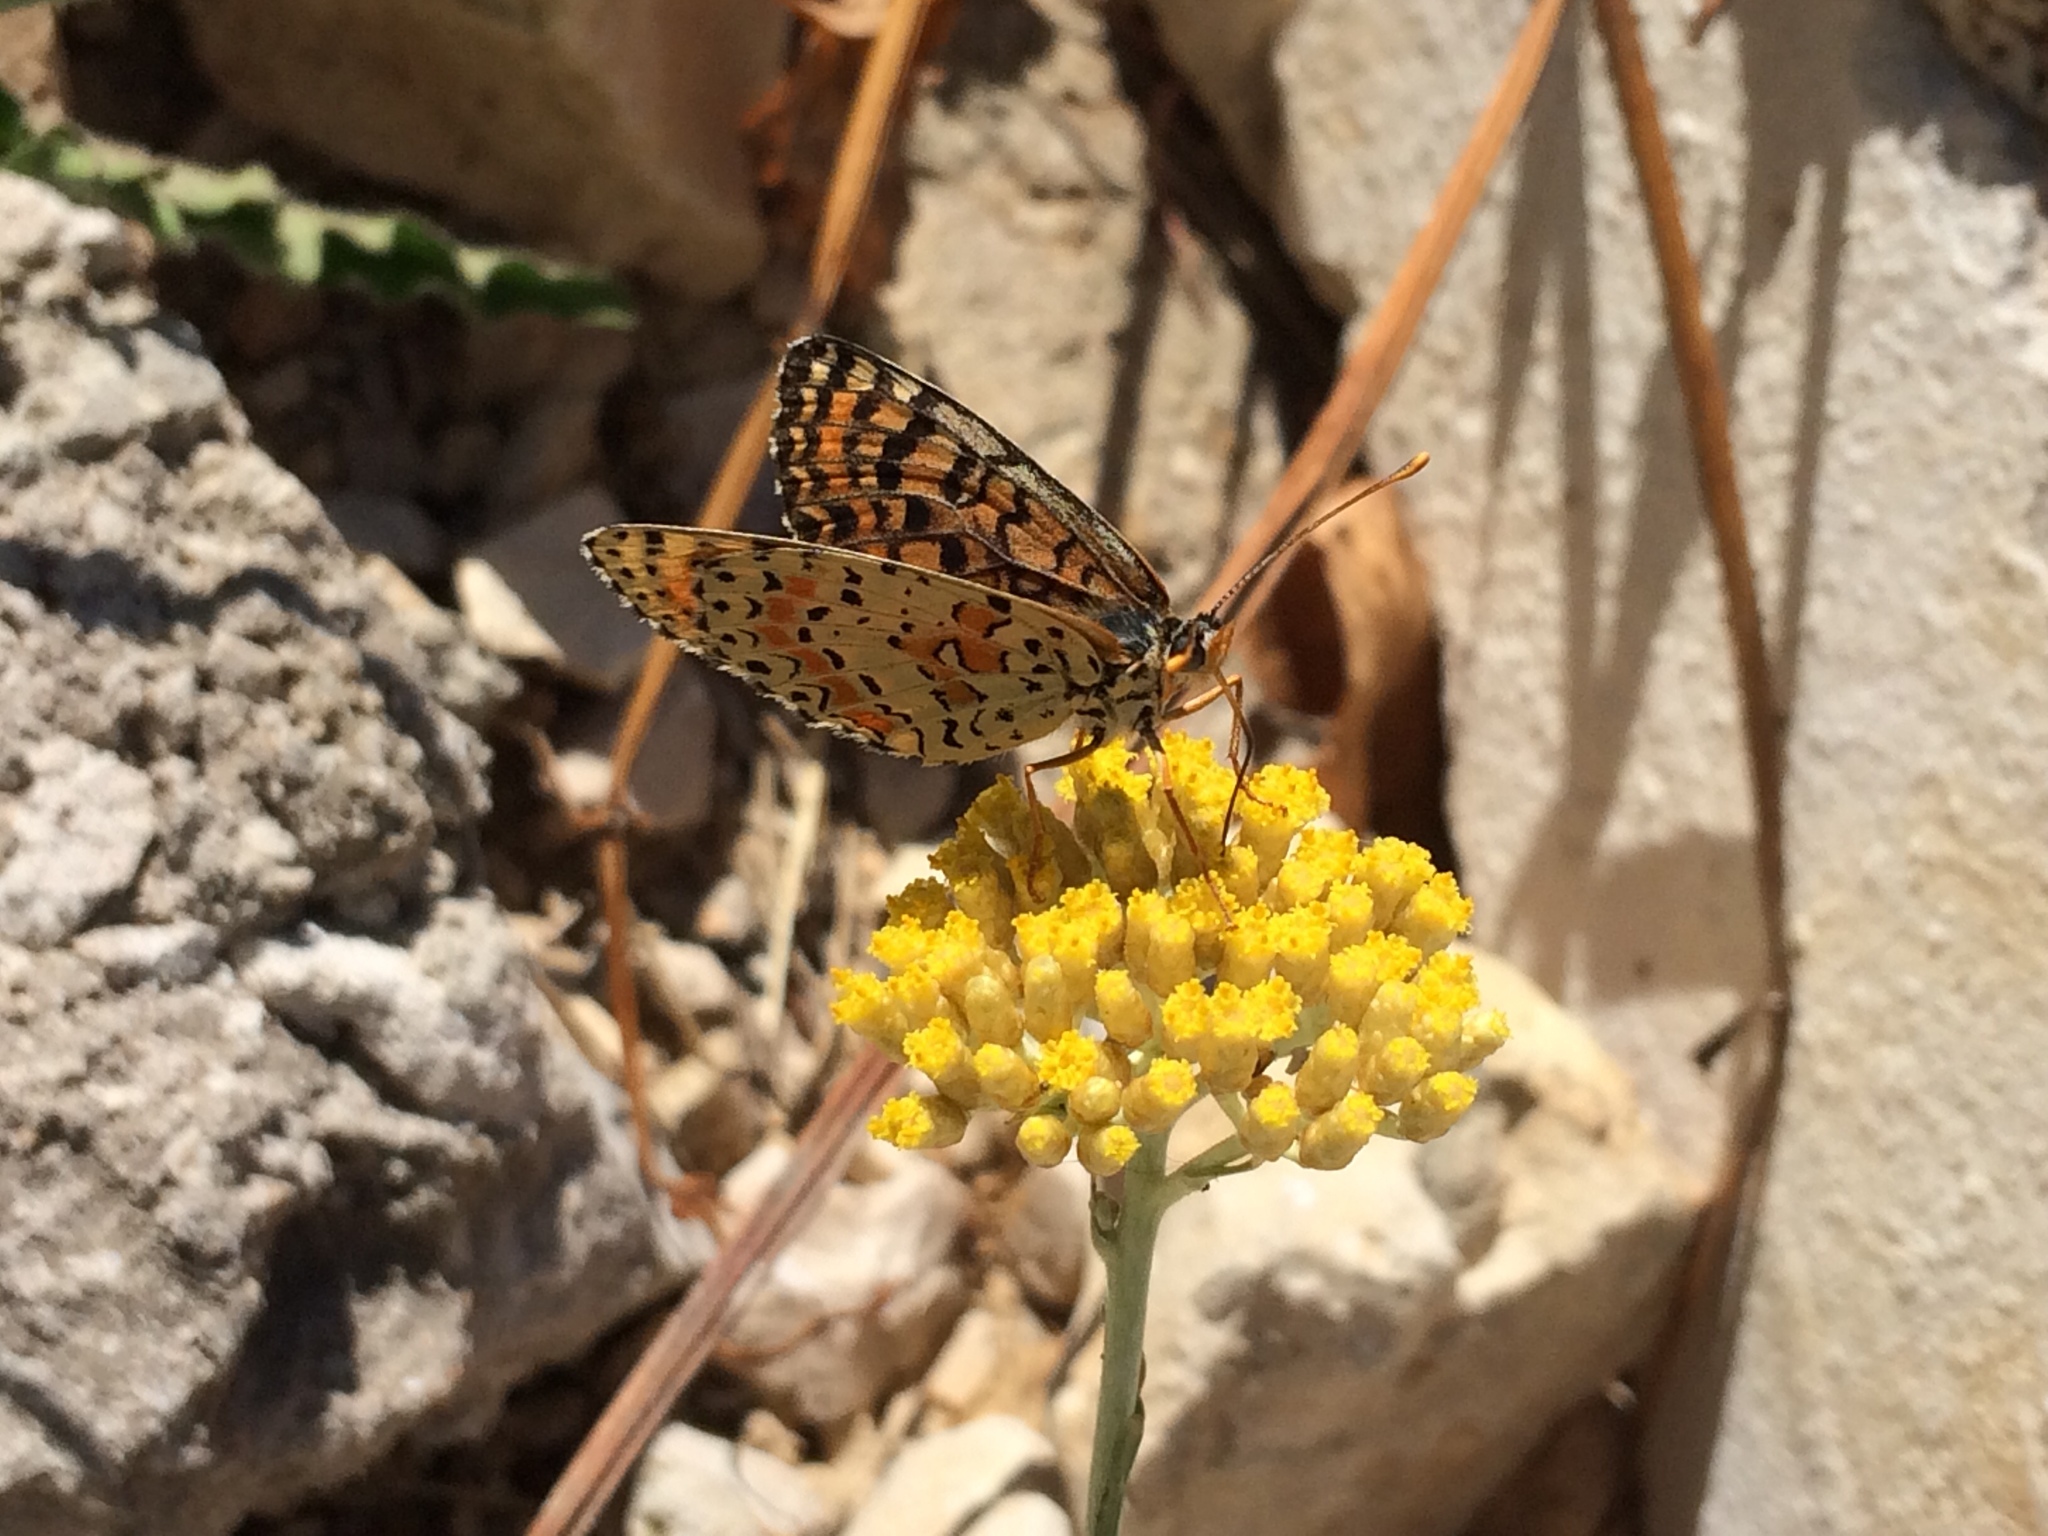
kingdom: Animalia
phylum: Arthropoda
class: Insecta
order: Lepidoptera
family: Nymphalidae
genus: Melitaea
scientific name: Melitaea didyma
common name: Spotted fritillary
